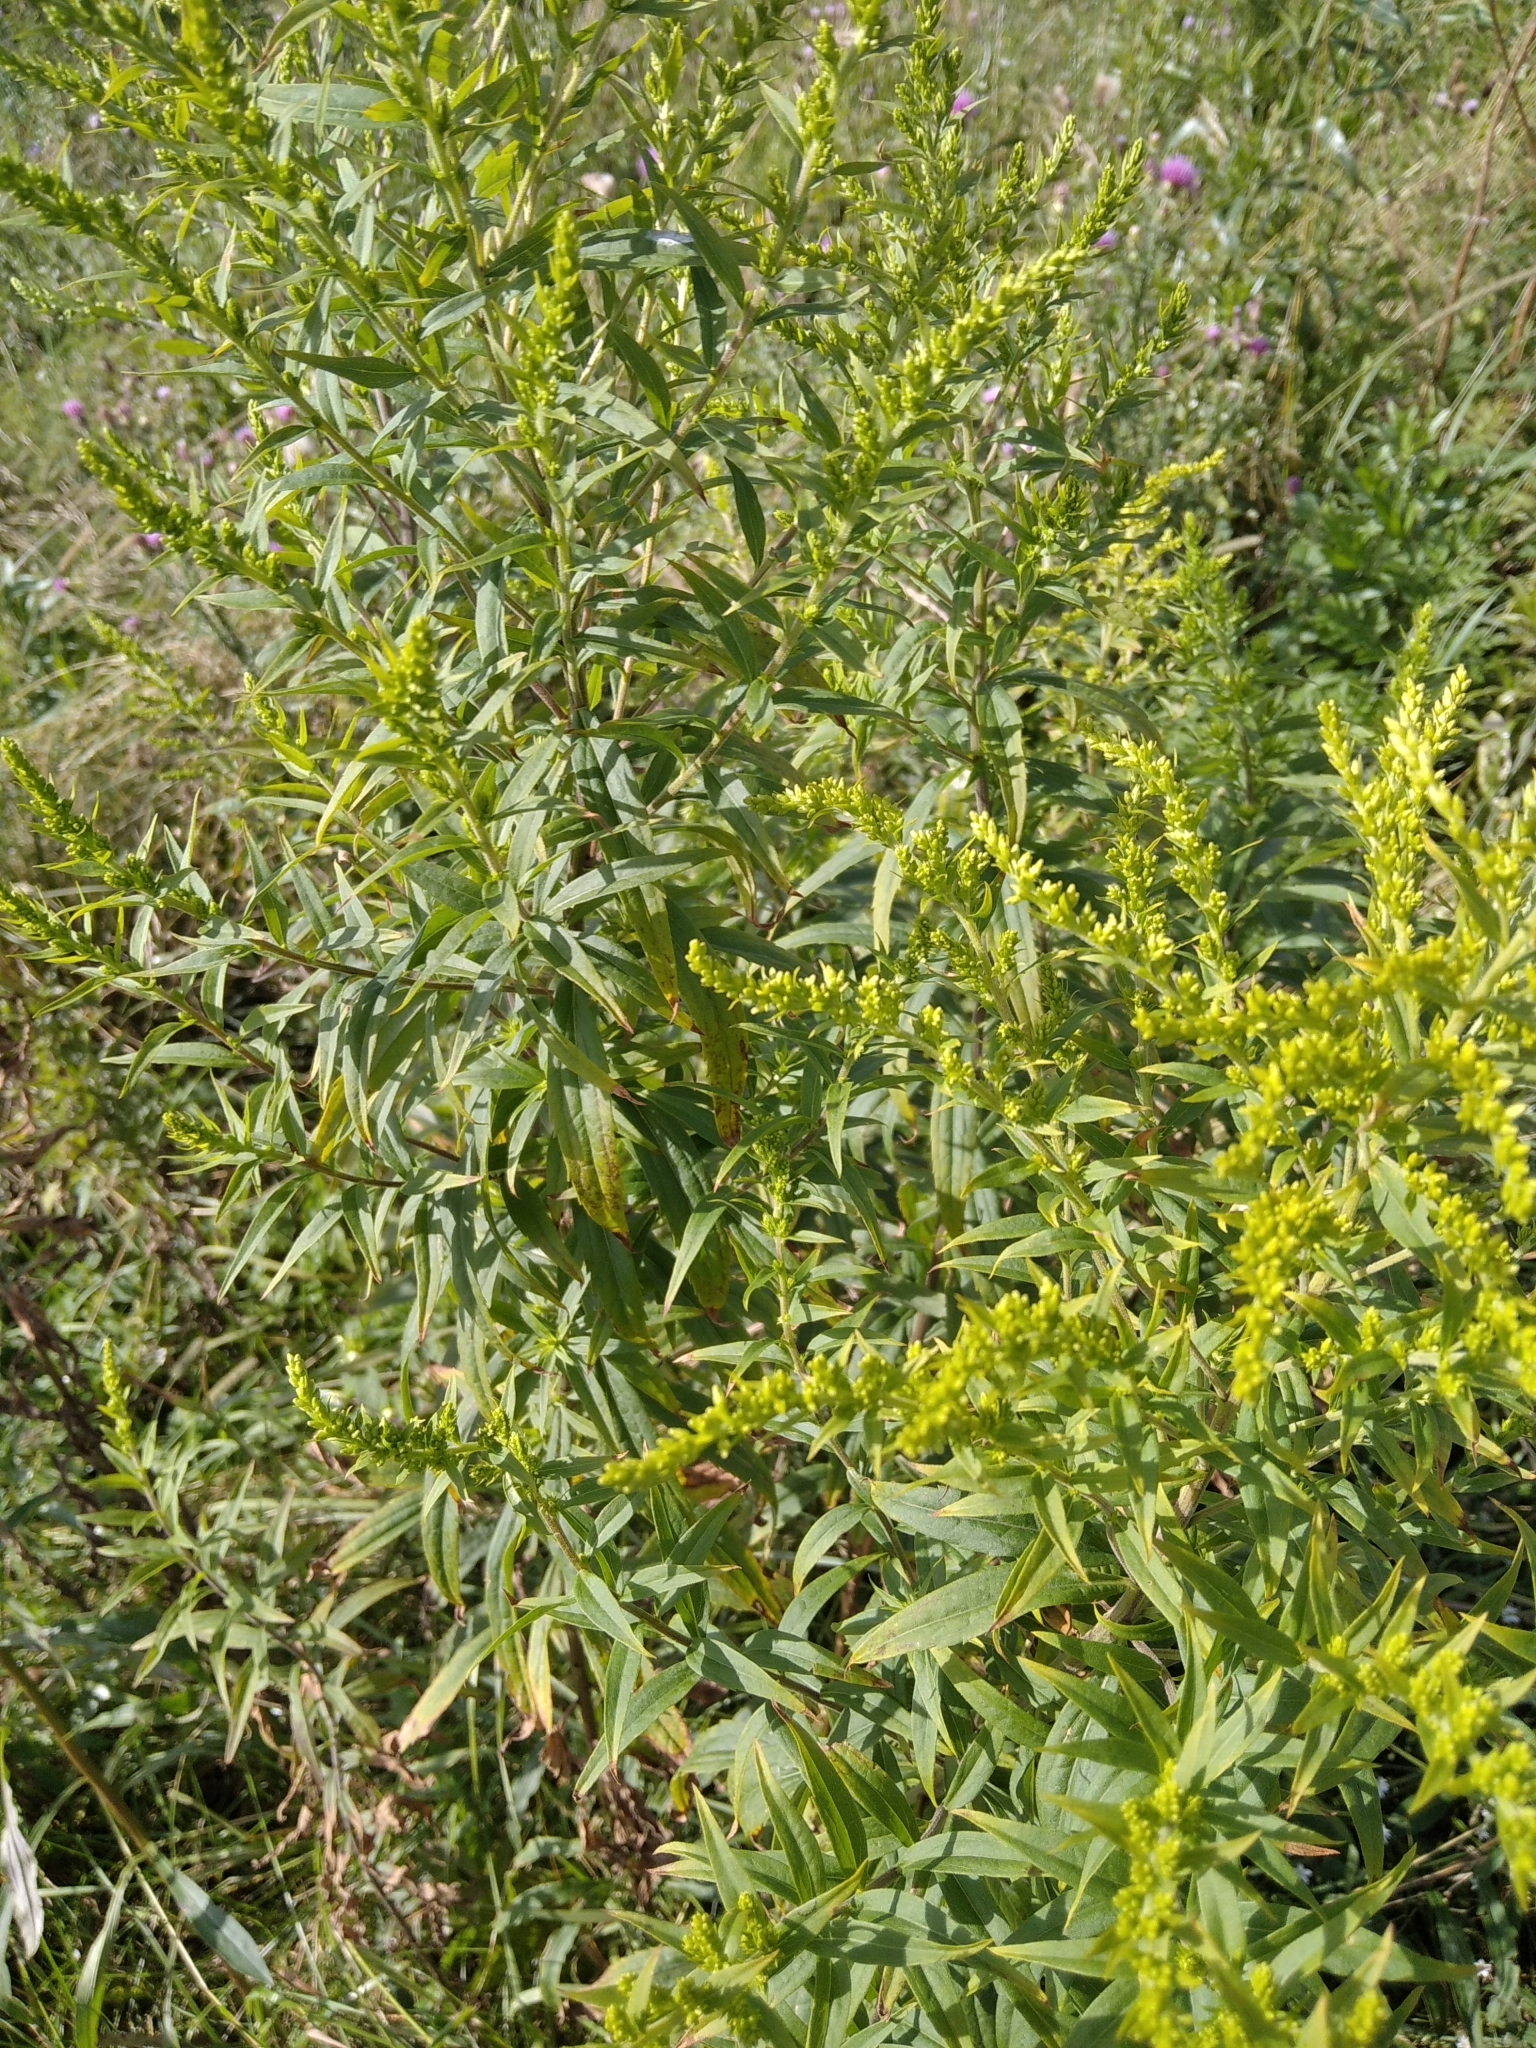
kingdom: Plantae
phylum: Tracheophyta
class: Magnoliopsida
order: Asterales
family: Asteraceae
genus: Solidago
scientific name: Solidago canadensis
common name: Canada goldenrod
